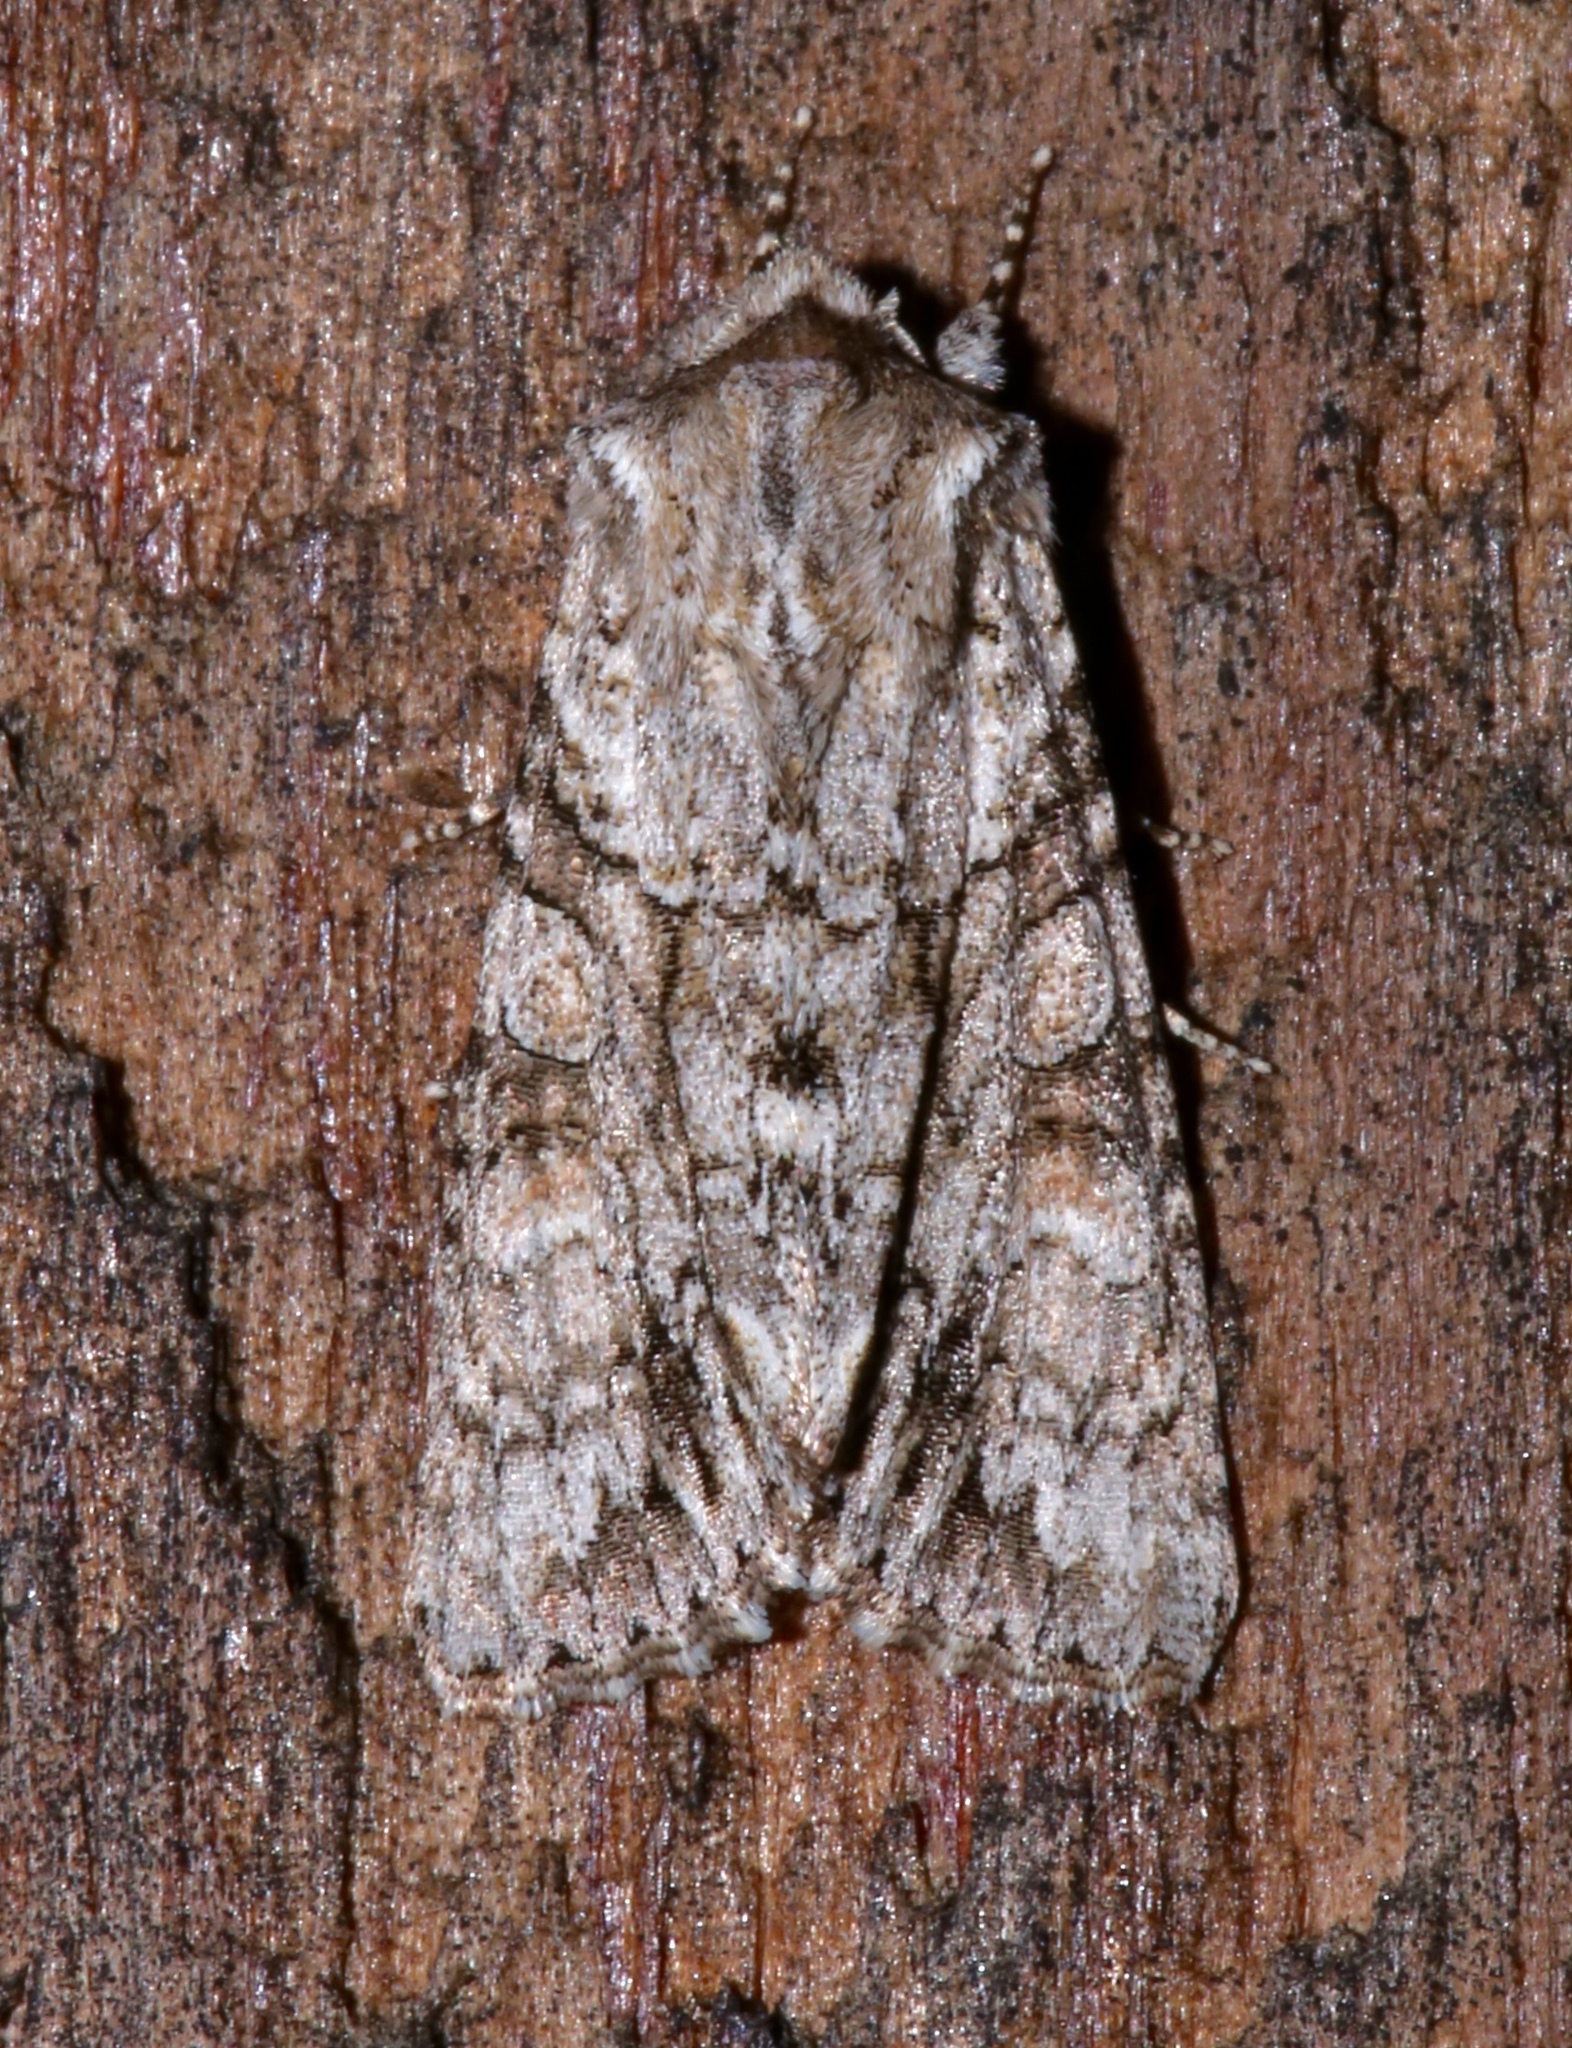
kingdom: Animalia
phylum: Arthropoda
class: Insecta
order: Lepidoptera
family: Noctuidae
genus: Achatia
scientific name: Achatia distincta
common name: Distinct quaker
